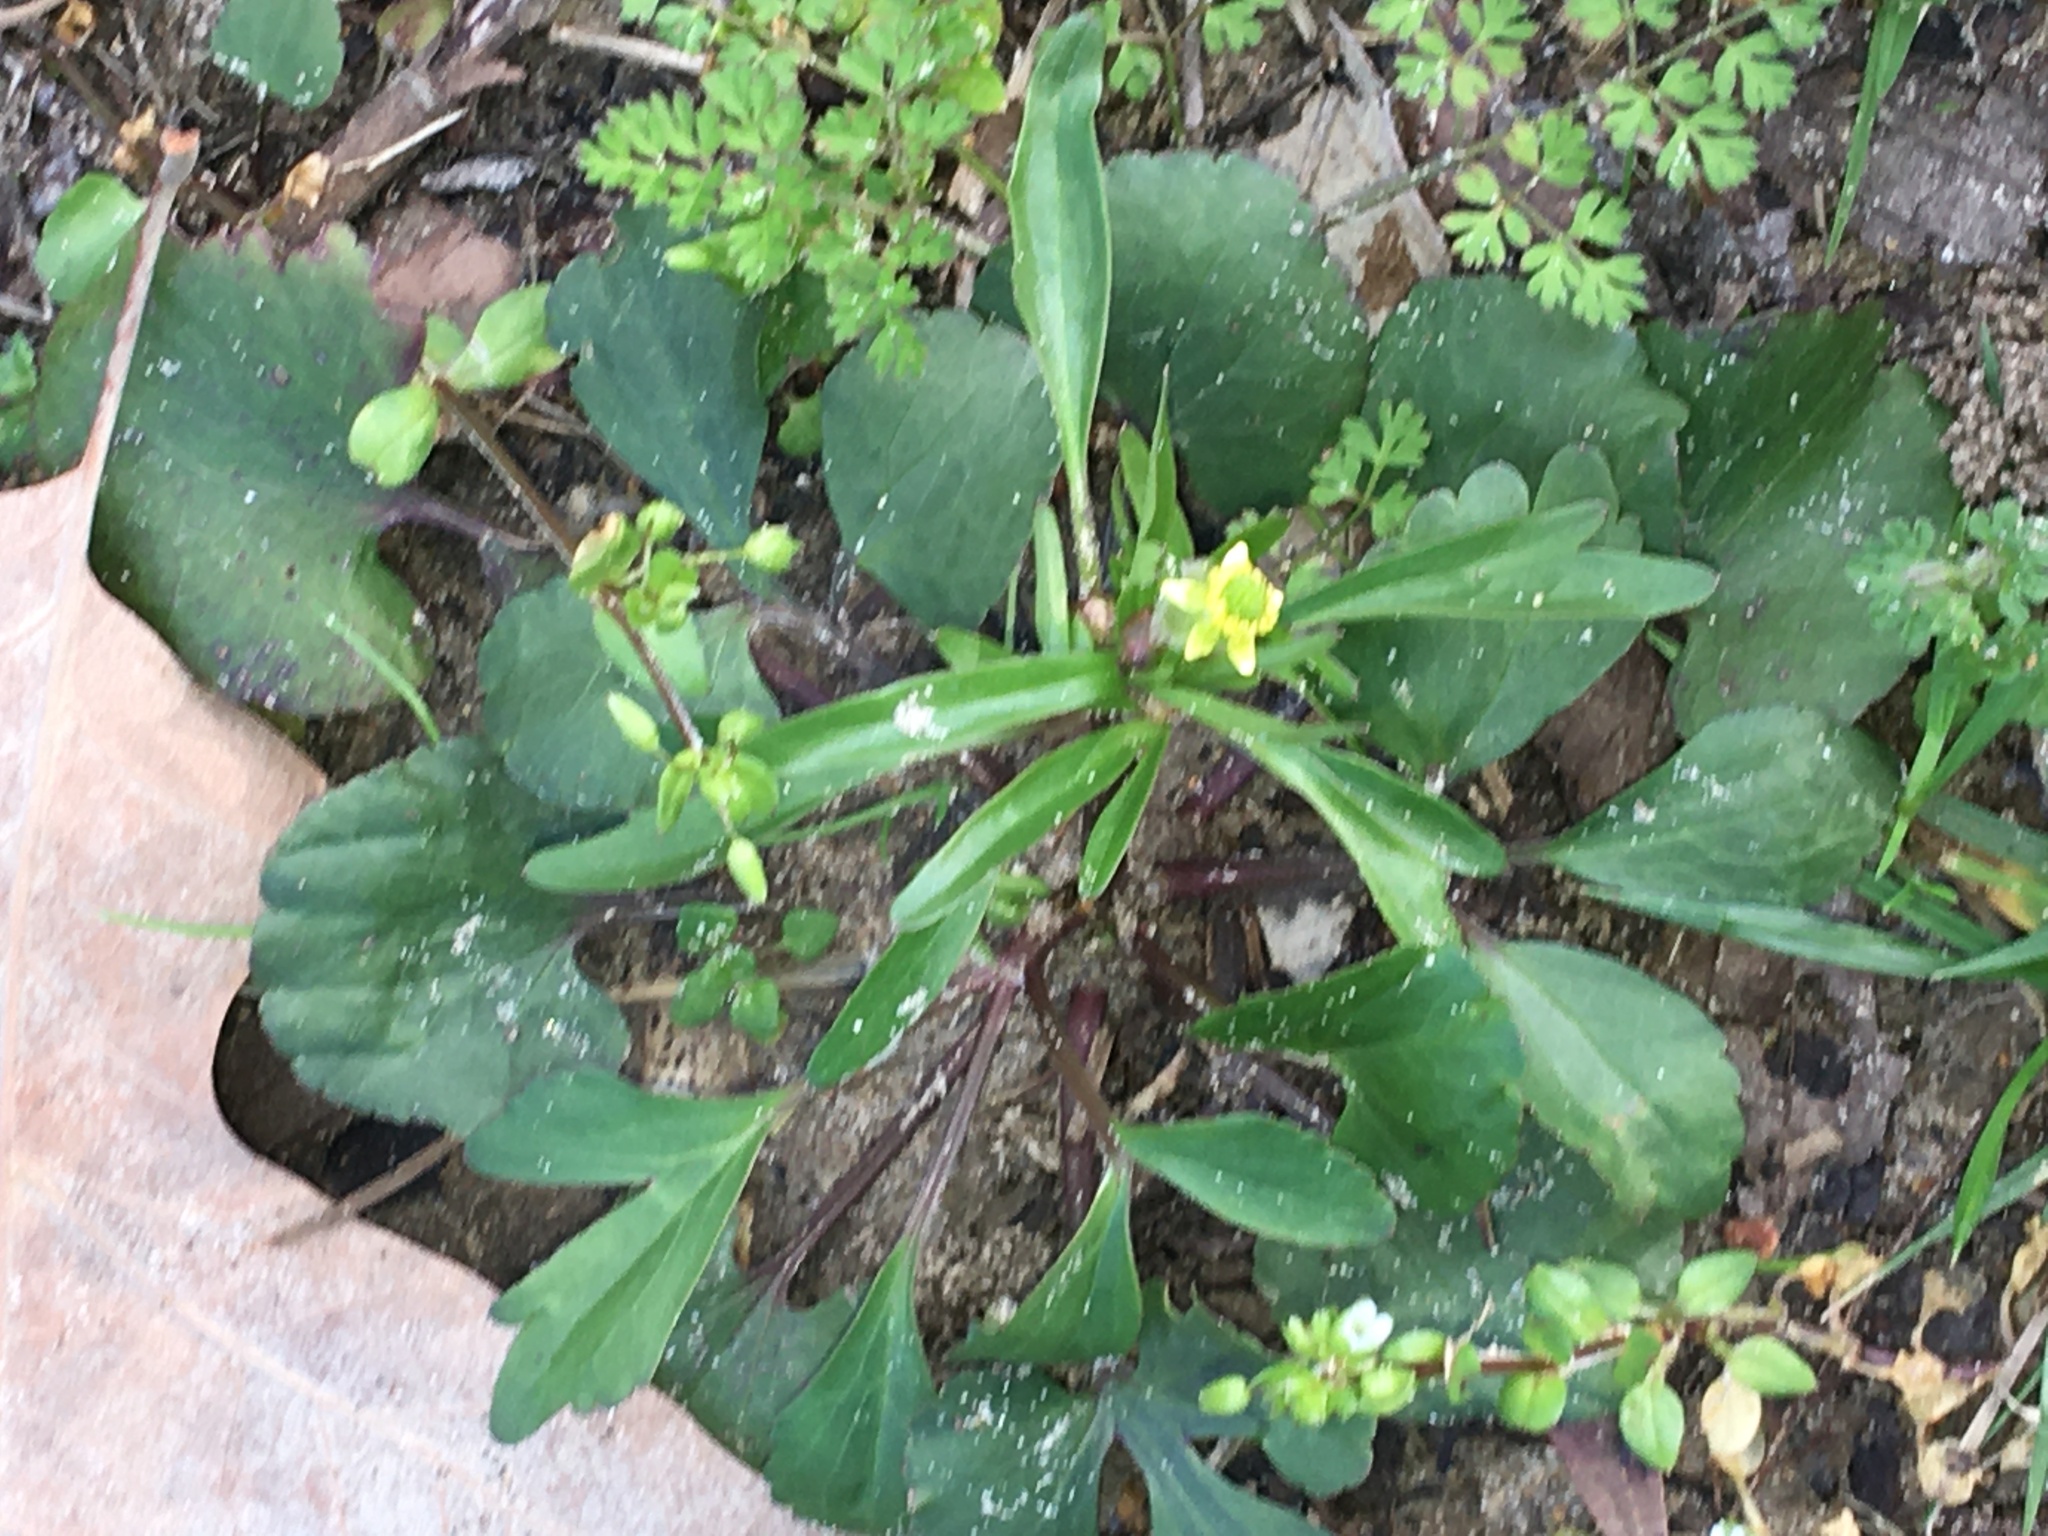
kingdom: Plantae
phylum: Tracheophyta
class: Magnoliopsida
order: Ranunculales
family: Ranunculaceae
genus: Ranunculus
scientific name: Ranunculus abortivus
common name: Early wood buttercup
